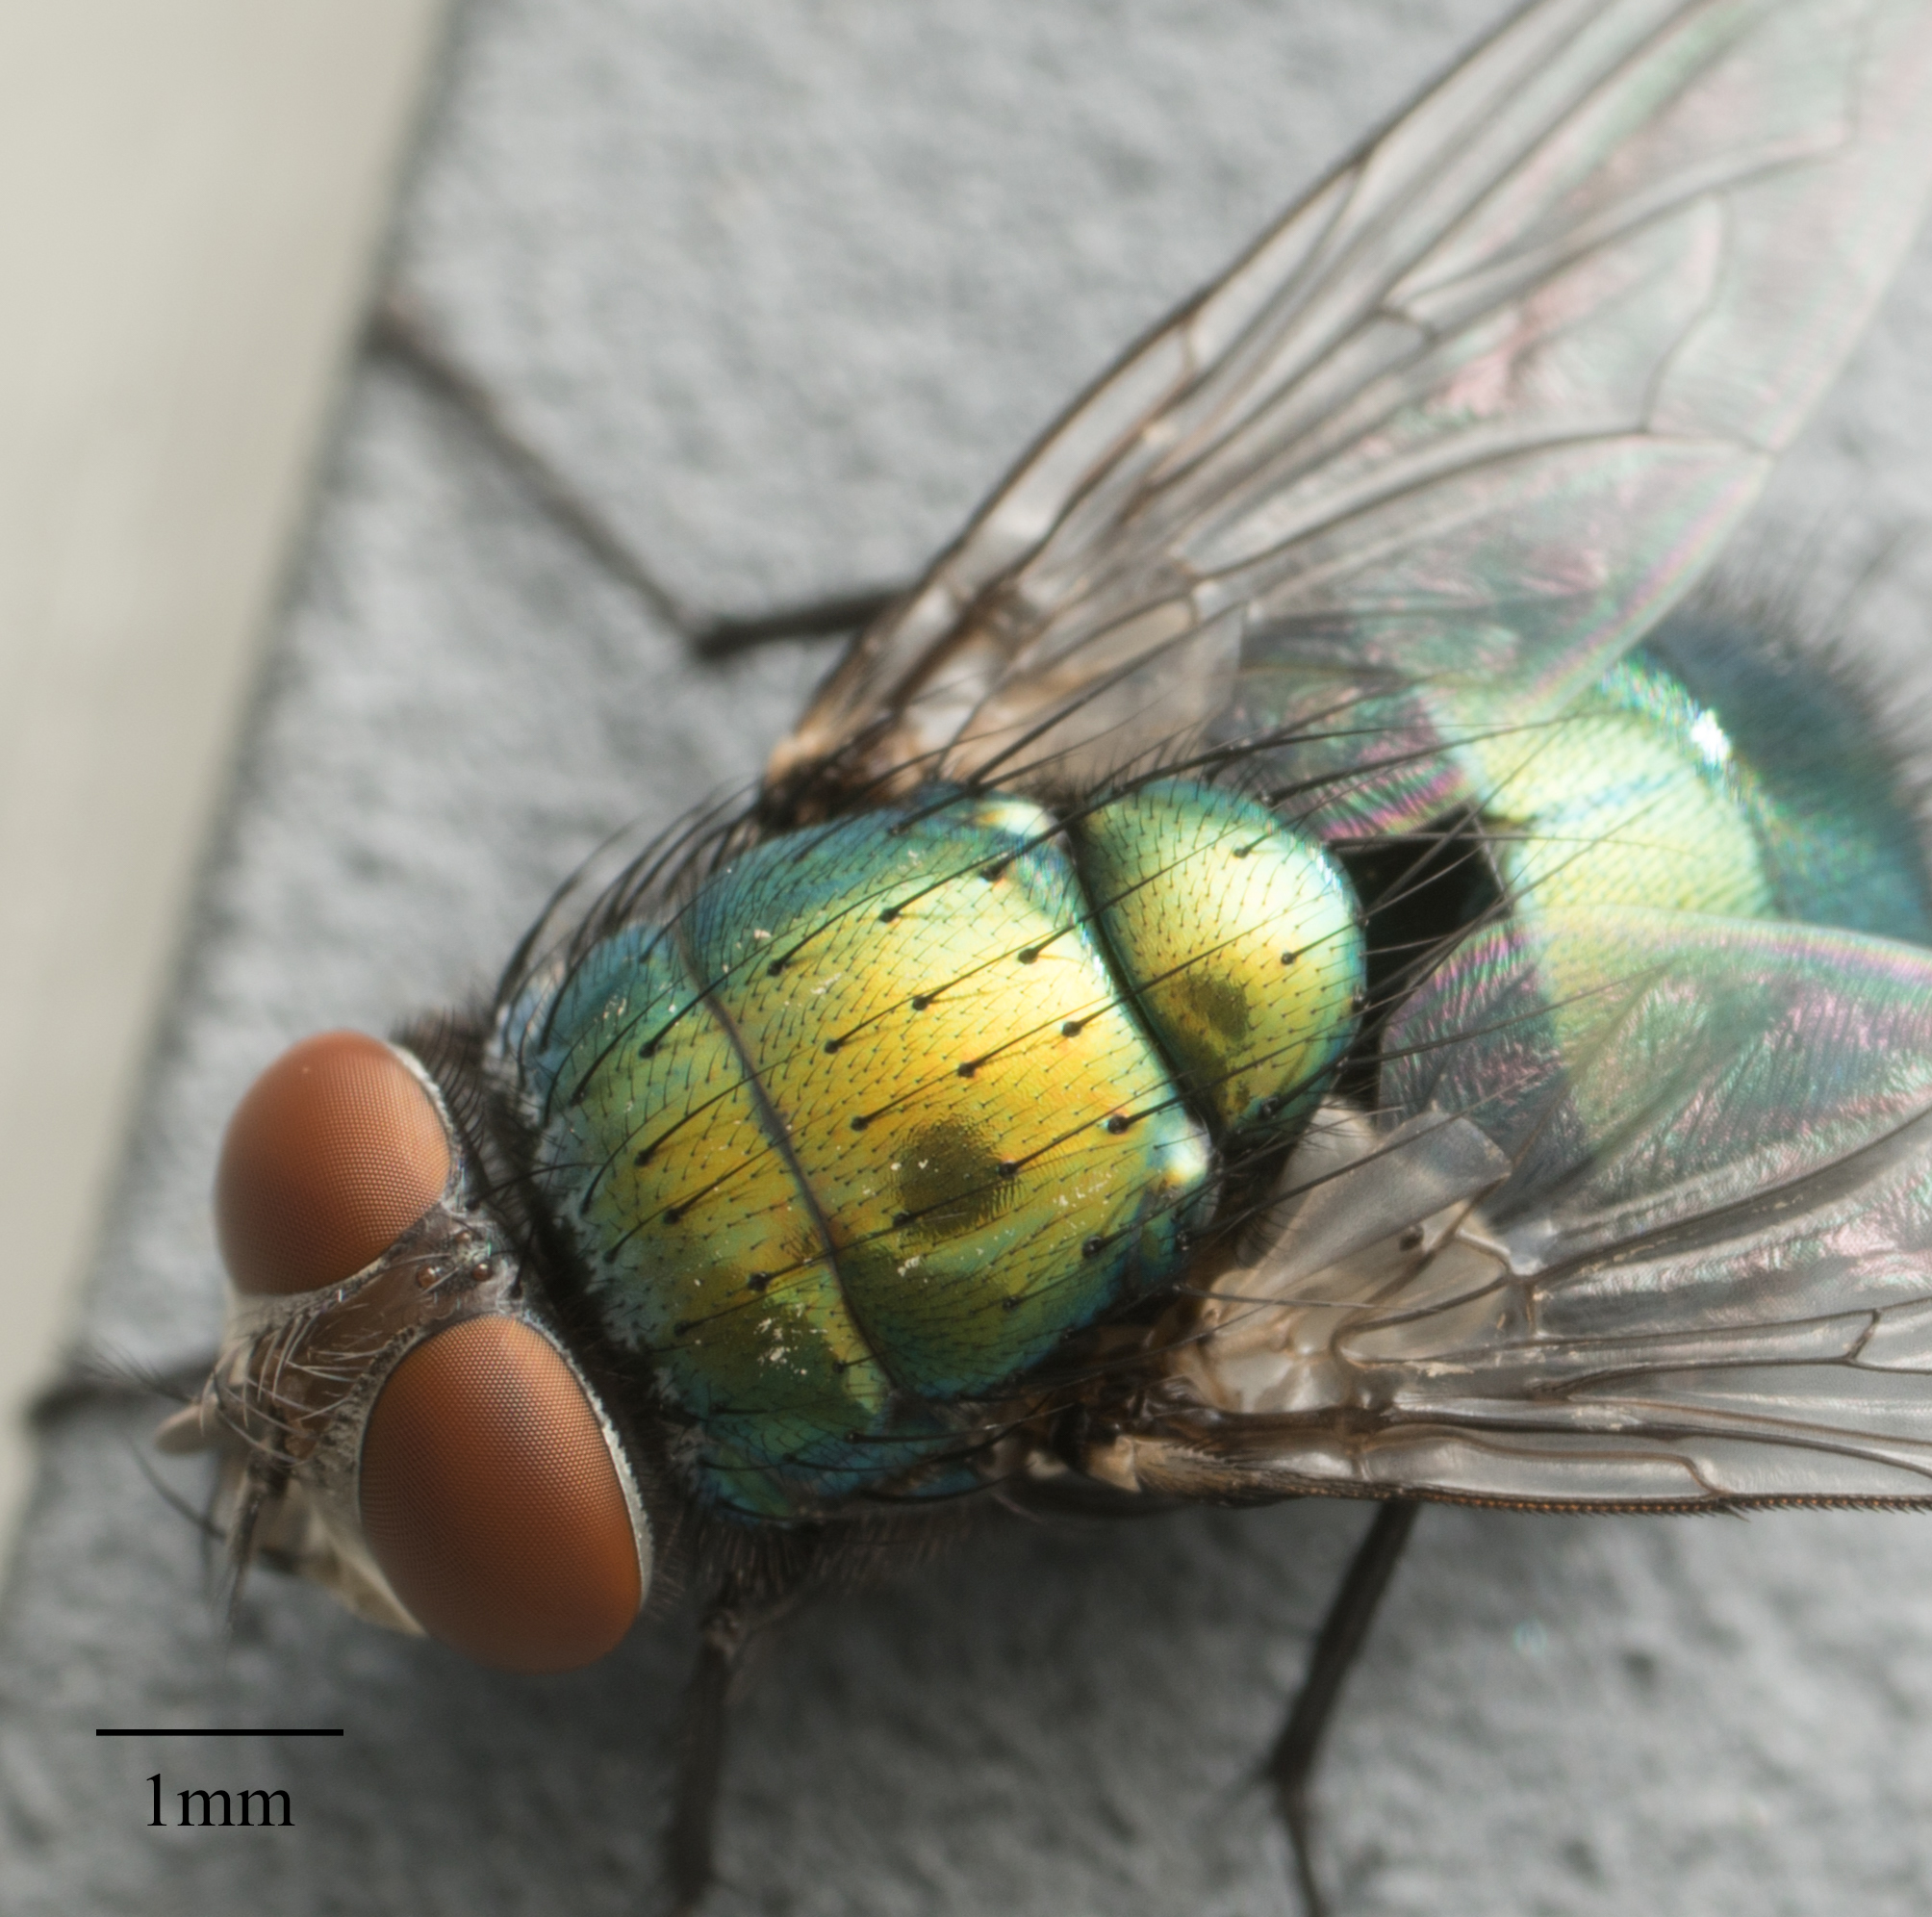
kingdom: Animalia
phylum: Arthropoda
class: Insecta
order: Diptera
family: Calliphoridae
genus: Lucilia
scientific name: Lucilia sericata
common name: Blow fly
